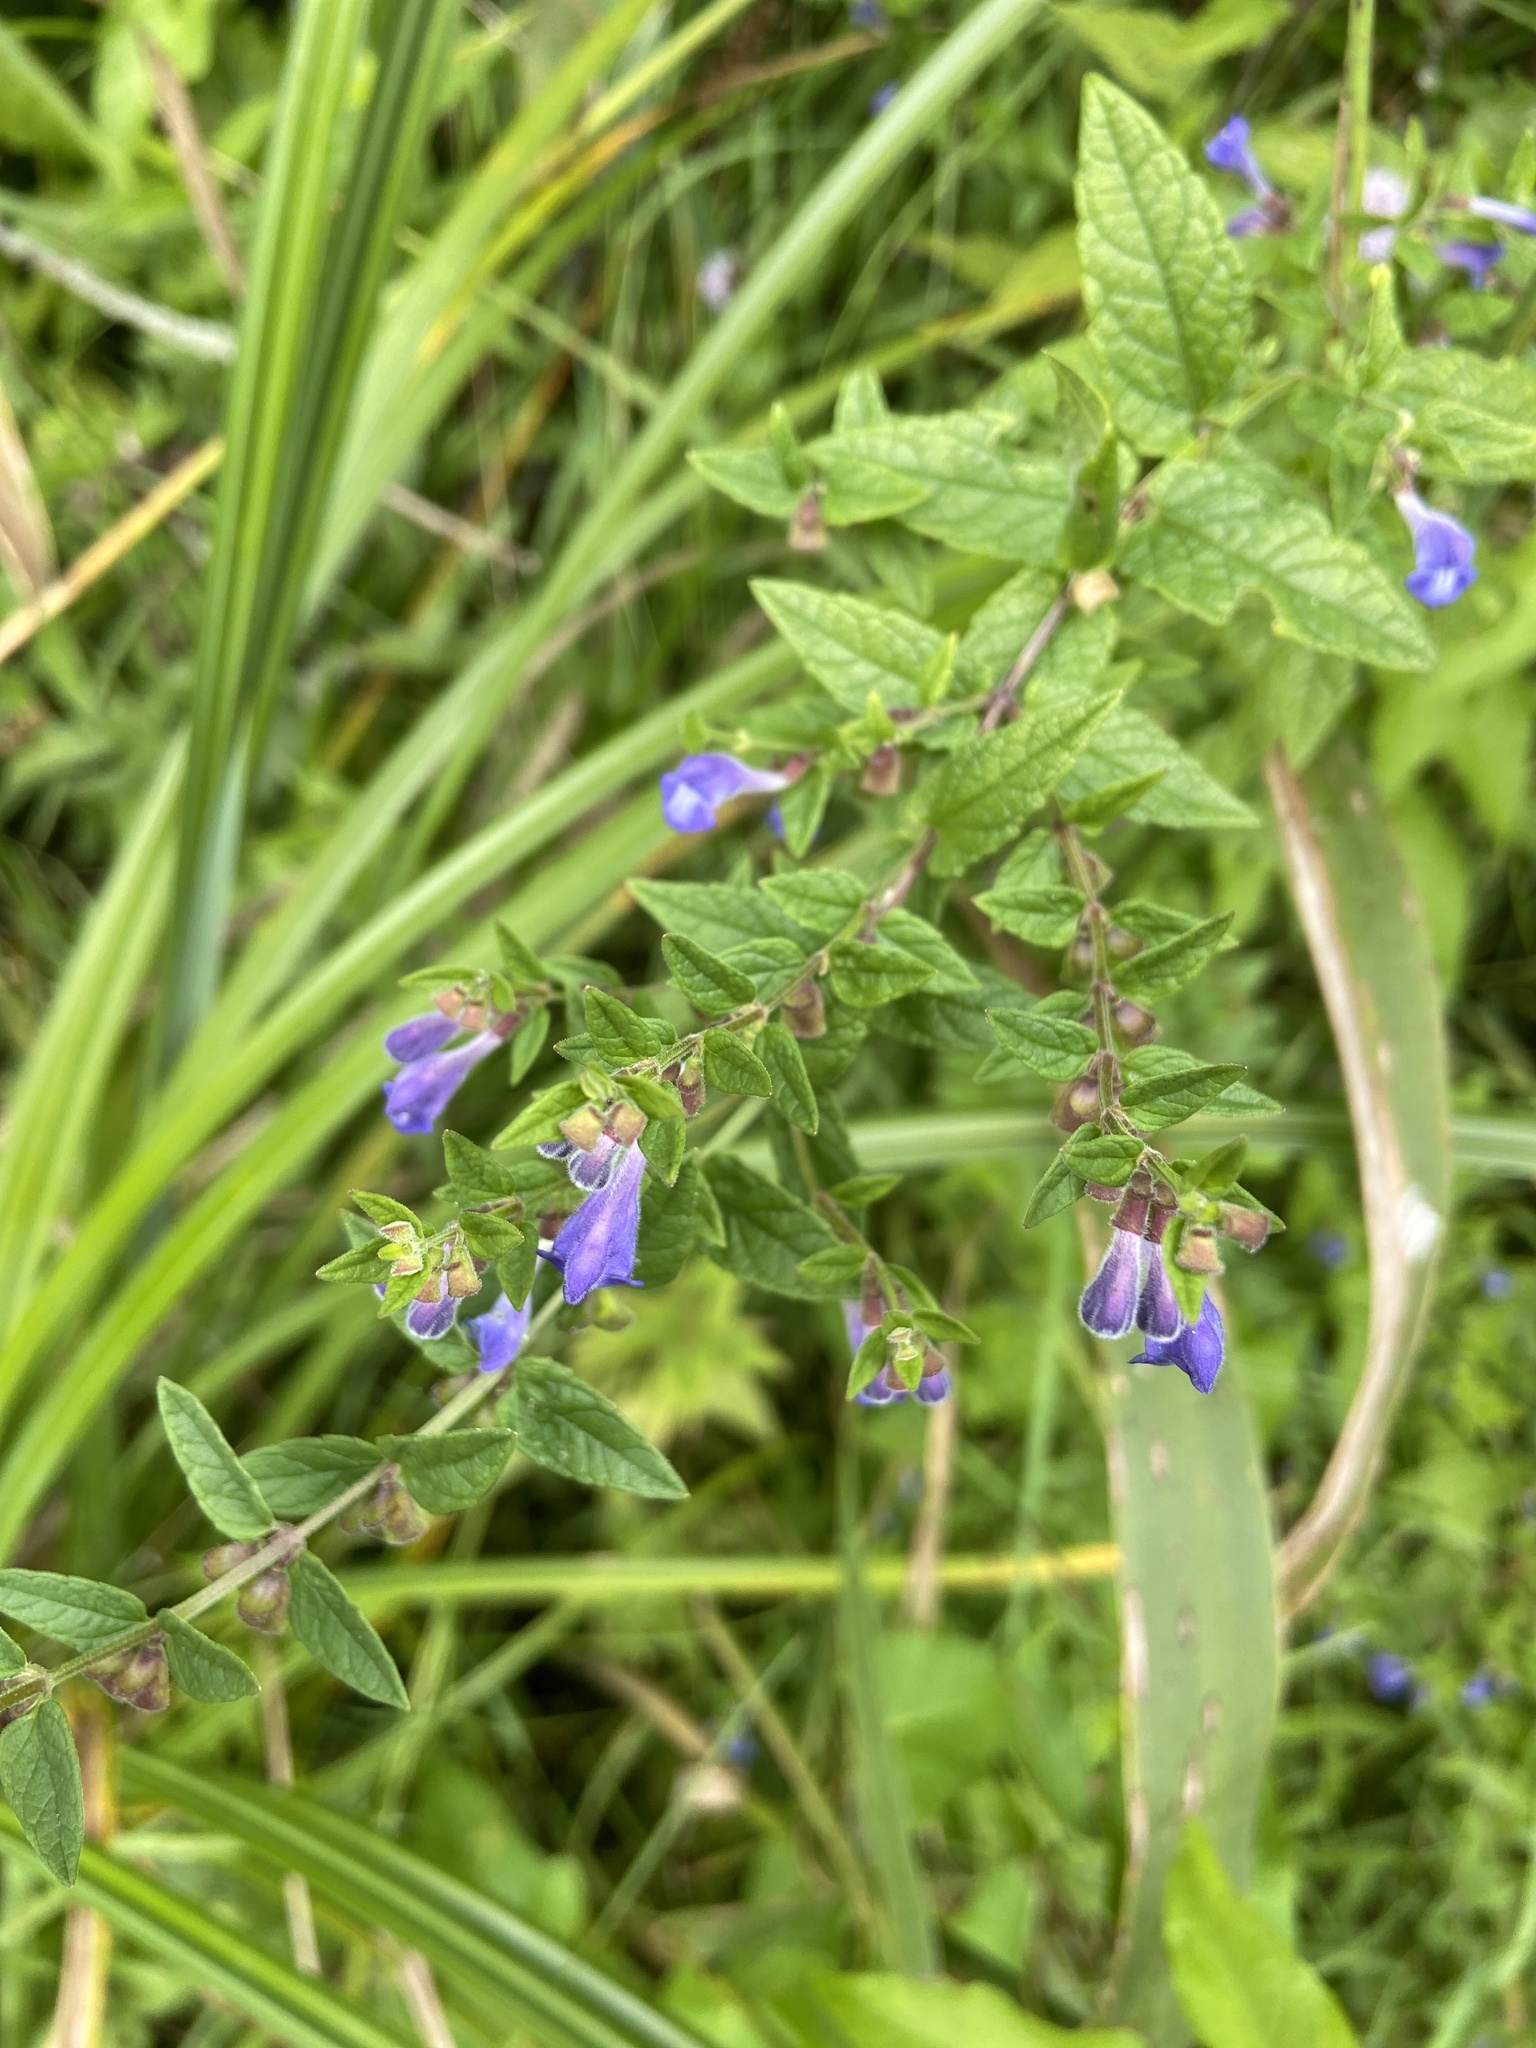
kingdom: Plantae
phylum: Tracheophyta
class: Magnoliopsida
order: Lamiales
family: Lamiaceae
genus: Scutellaria
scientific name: Scutellaria galericulata
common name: Skullcap
